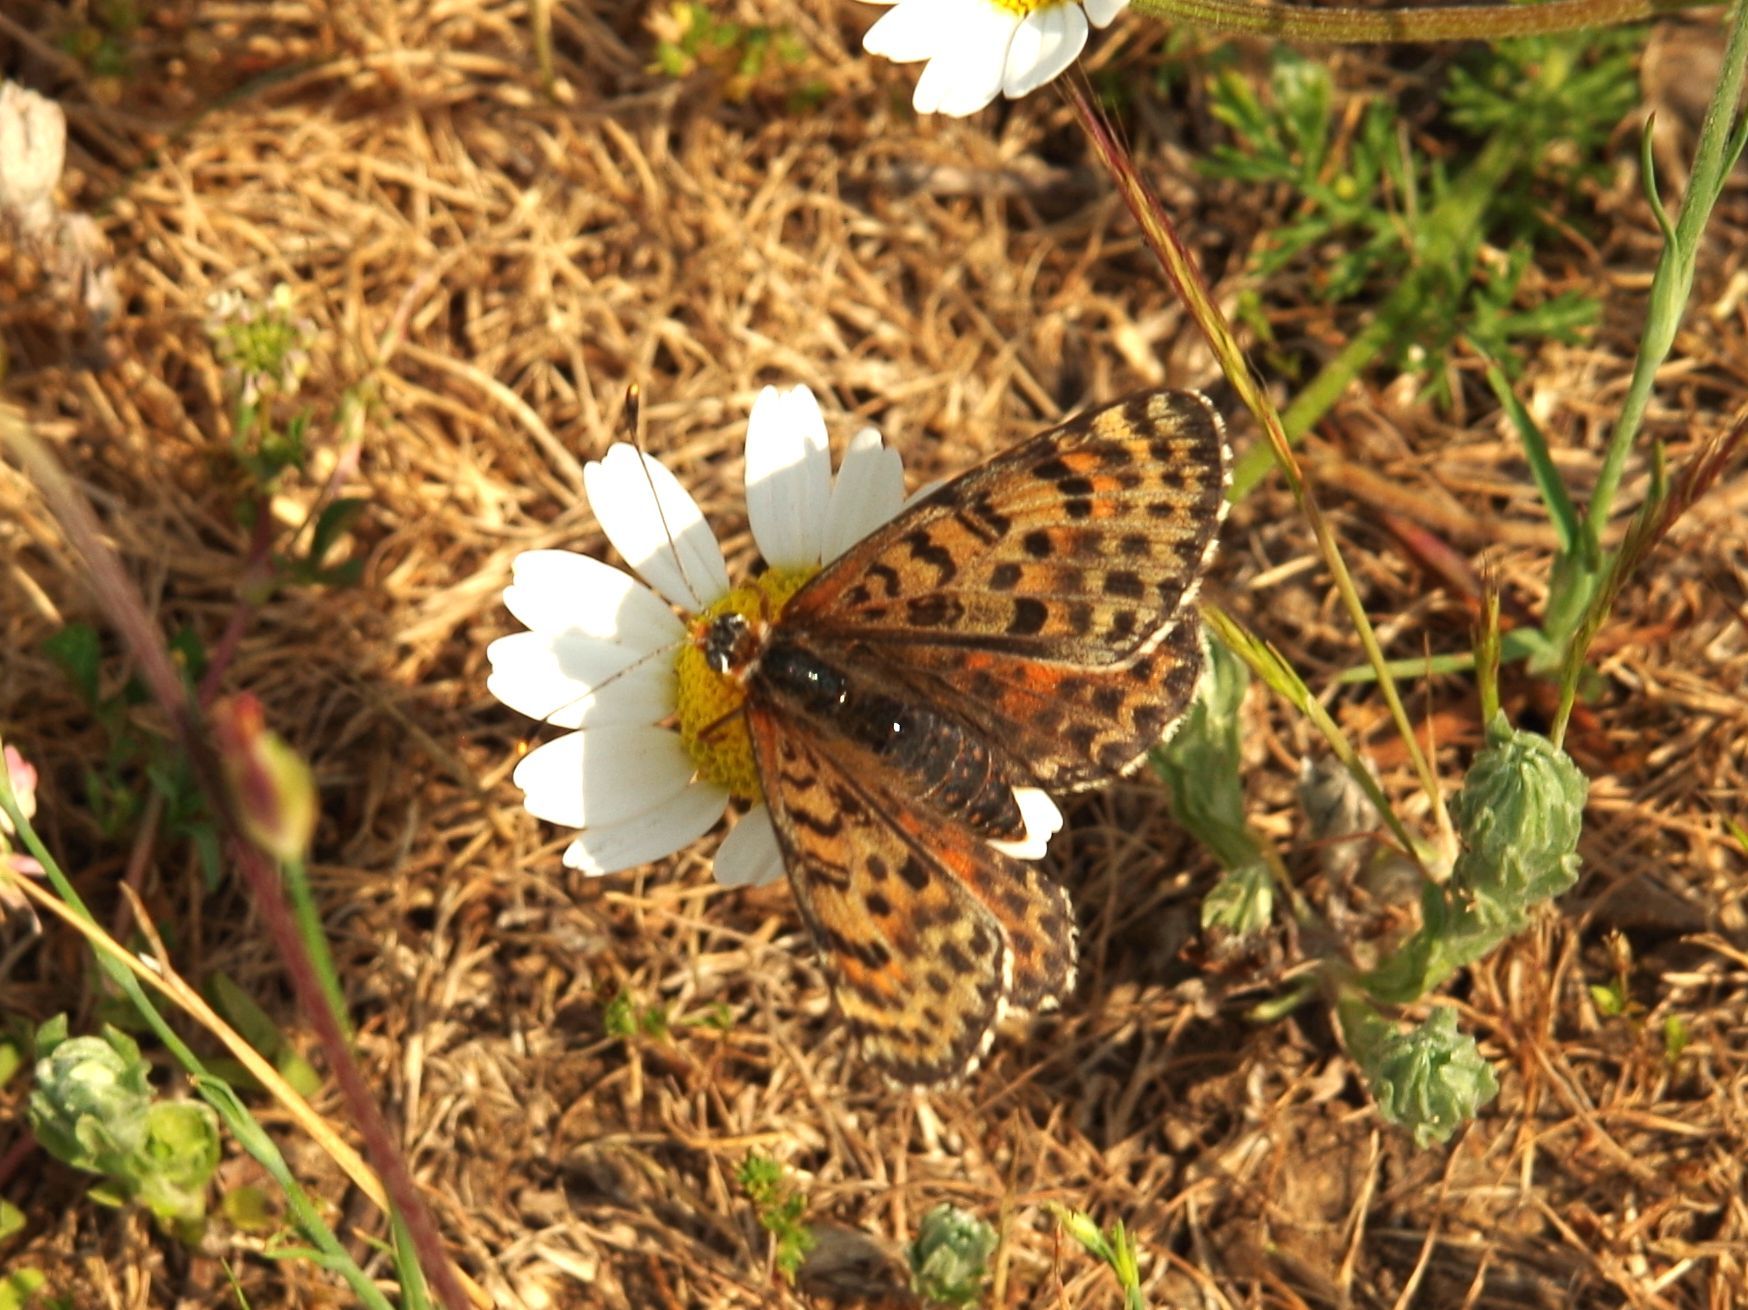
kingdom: Animalia
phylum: Arthropoda
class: Insecta
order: Lepidoptera
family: Nymphalidae
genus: Melitaea
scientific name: Melitaea didyma
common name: Spotted fritillary
